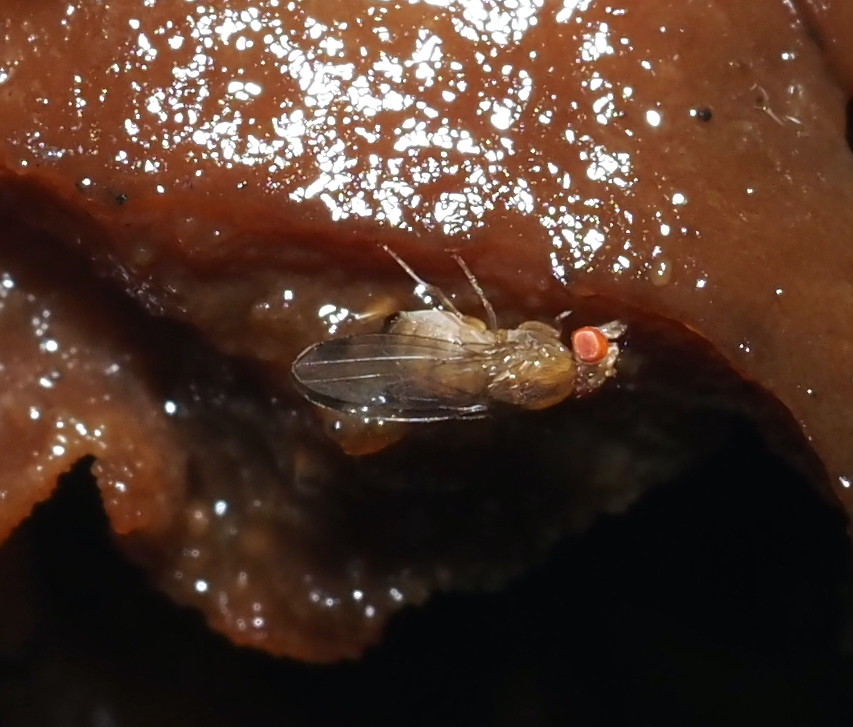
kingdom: Animalia
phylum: Arthropoda
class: Insecta
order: Diptera
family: Drosophilidae
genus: Drosophila
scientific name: Drosophila suzukii
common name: Spotted-wing drosophila
